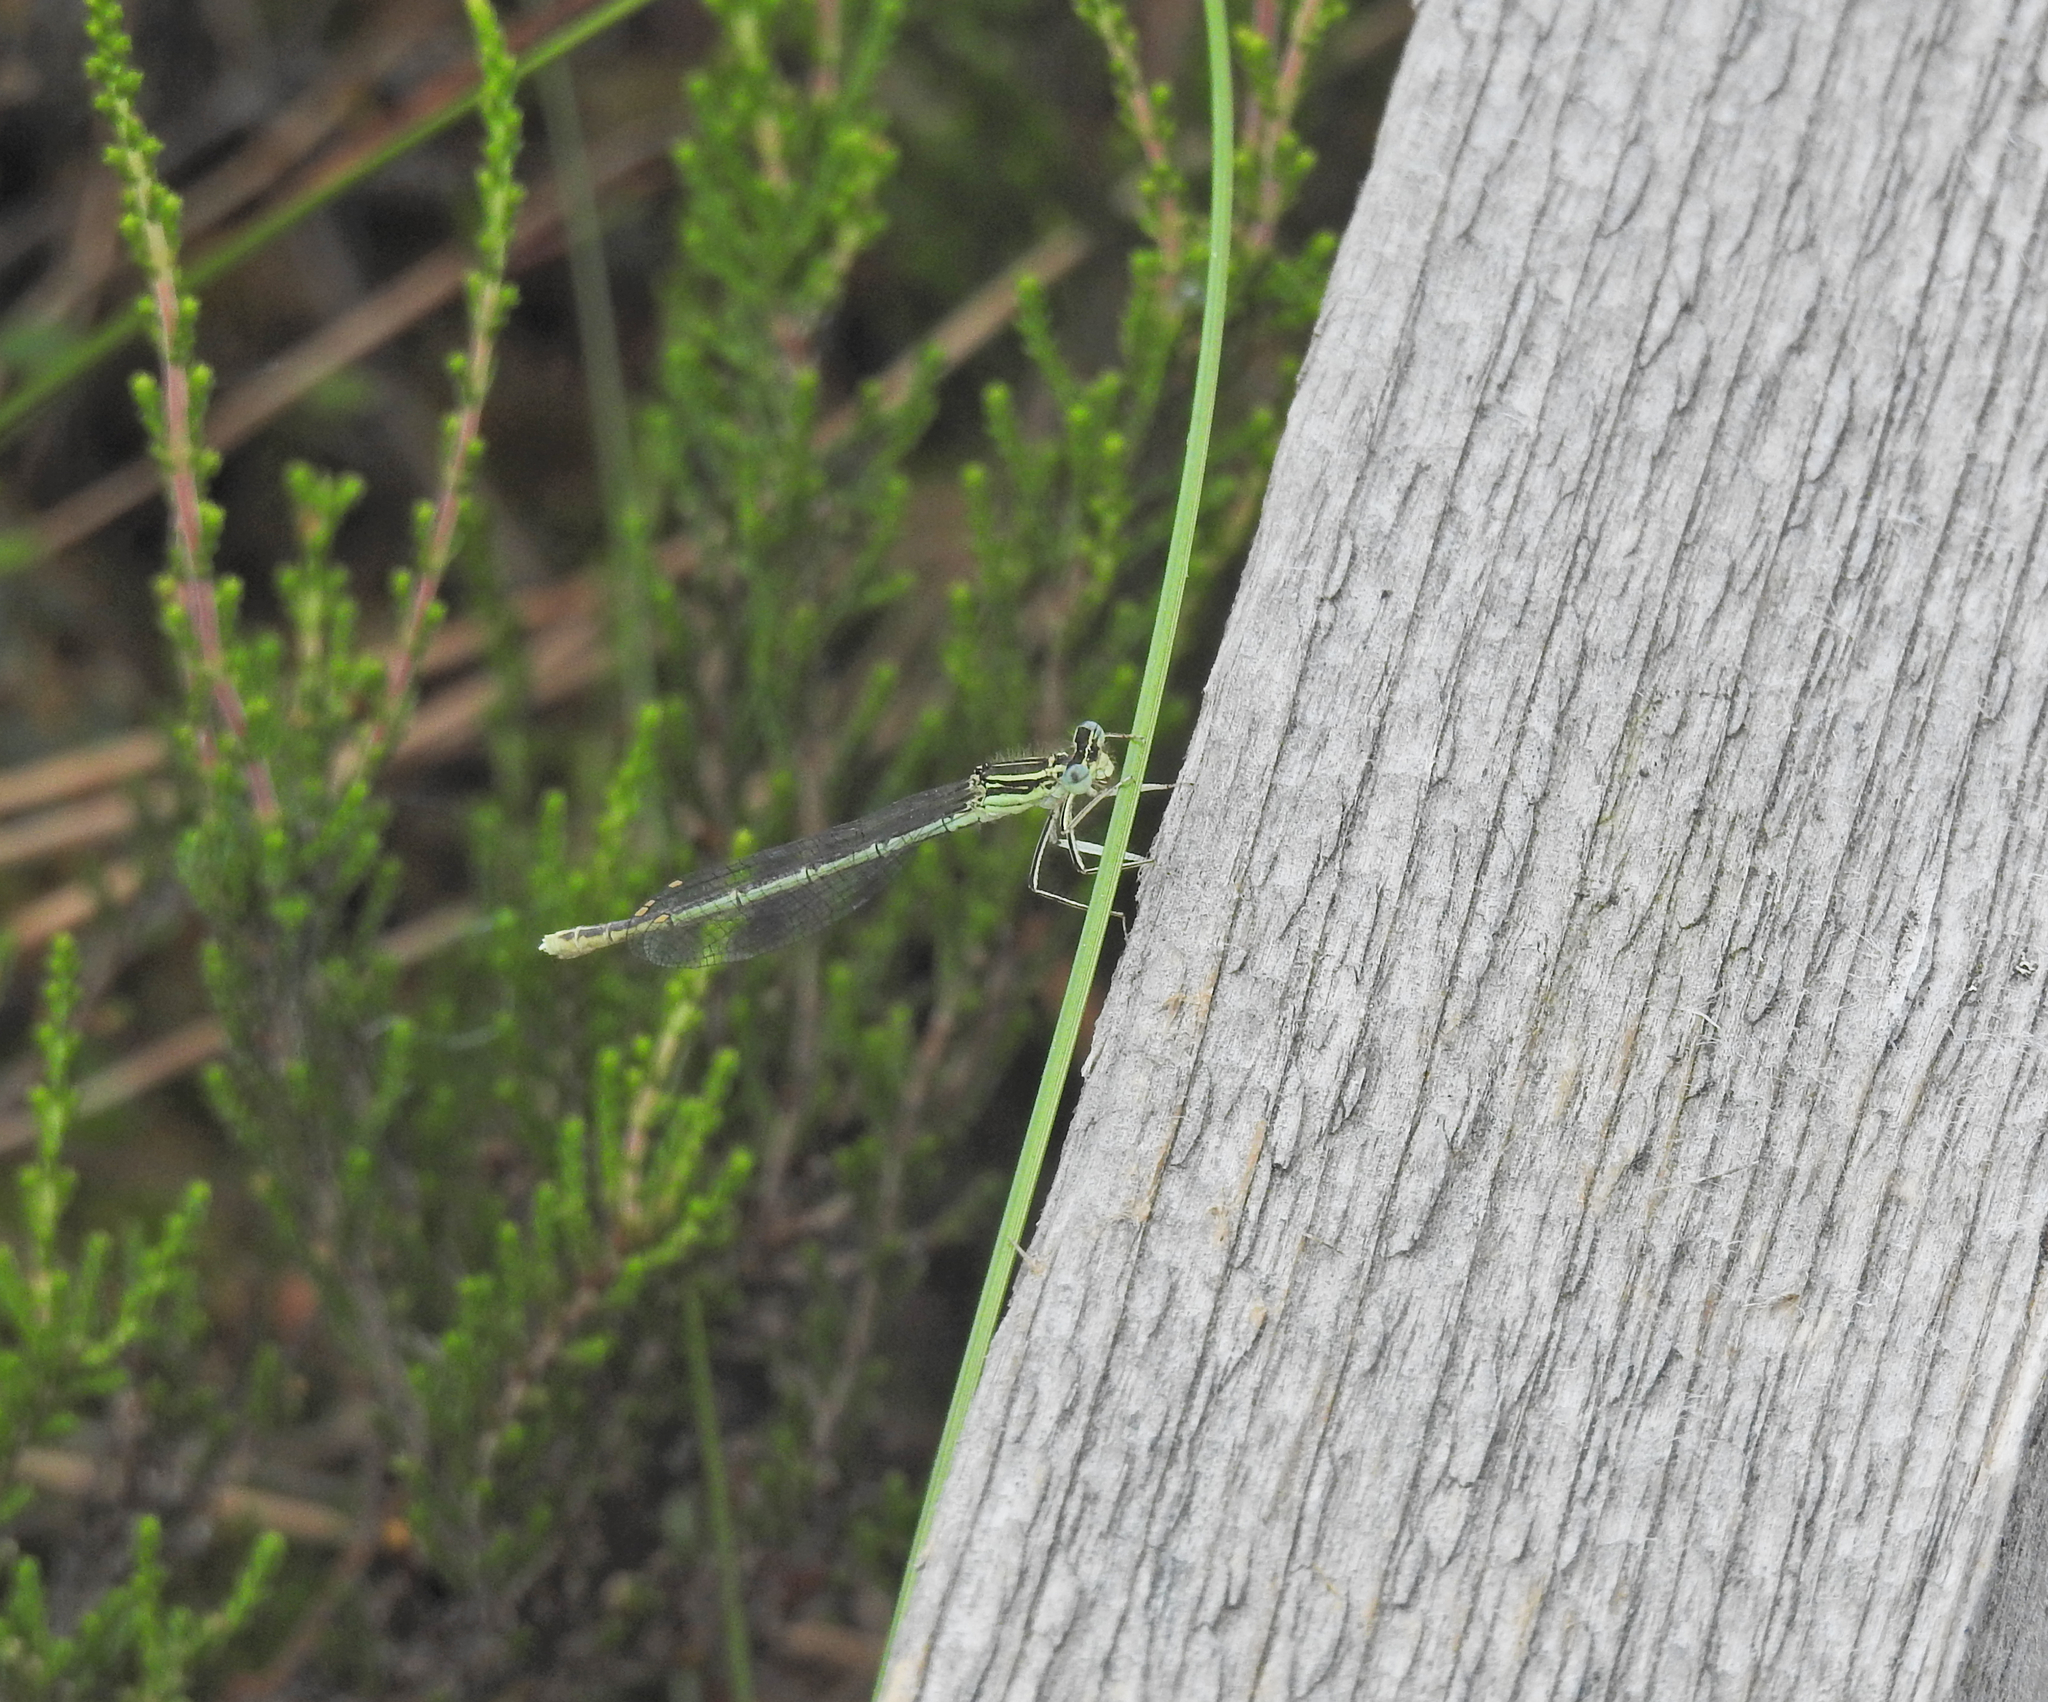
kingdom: Animalia
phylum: Arthropoda
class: Insecta
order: Odonata
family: Platycnemididae
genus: Platycnemis
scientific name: Platycnemis pennipes
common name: White-legged damselfly
